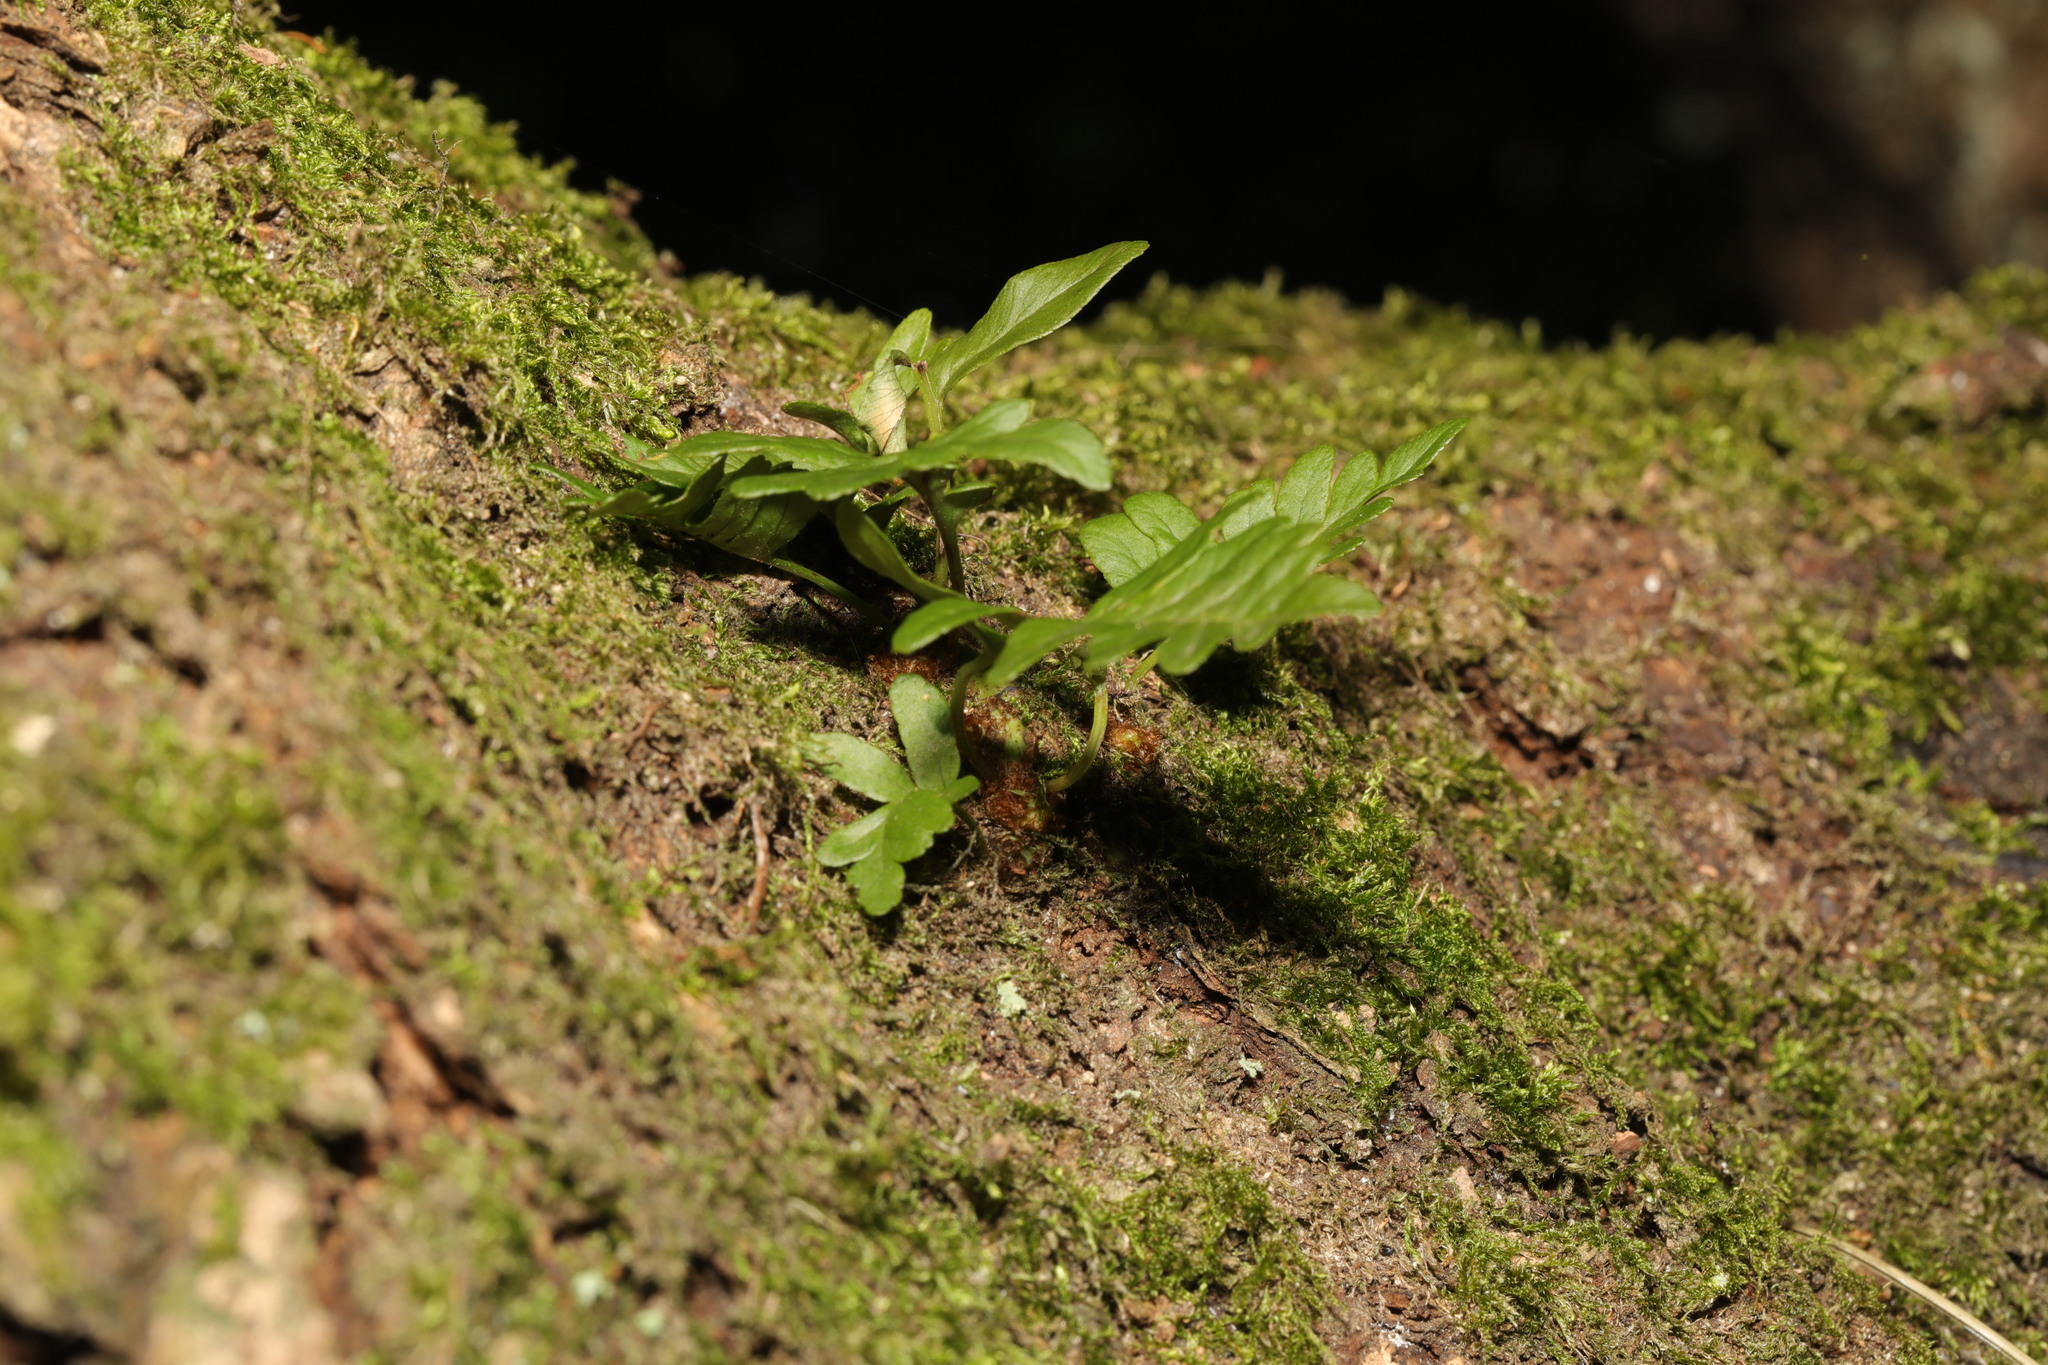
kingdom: Plantae
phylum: Tracheophyta
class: Polypodiopsida
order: Polypodiales
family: Polypodiaceae
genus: Polypodium
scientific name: Polypodium vulgare
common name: Common polypody
